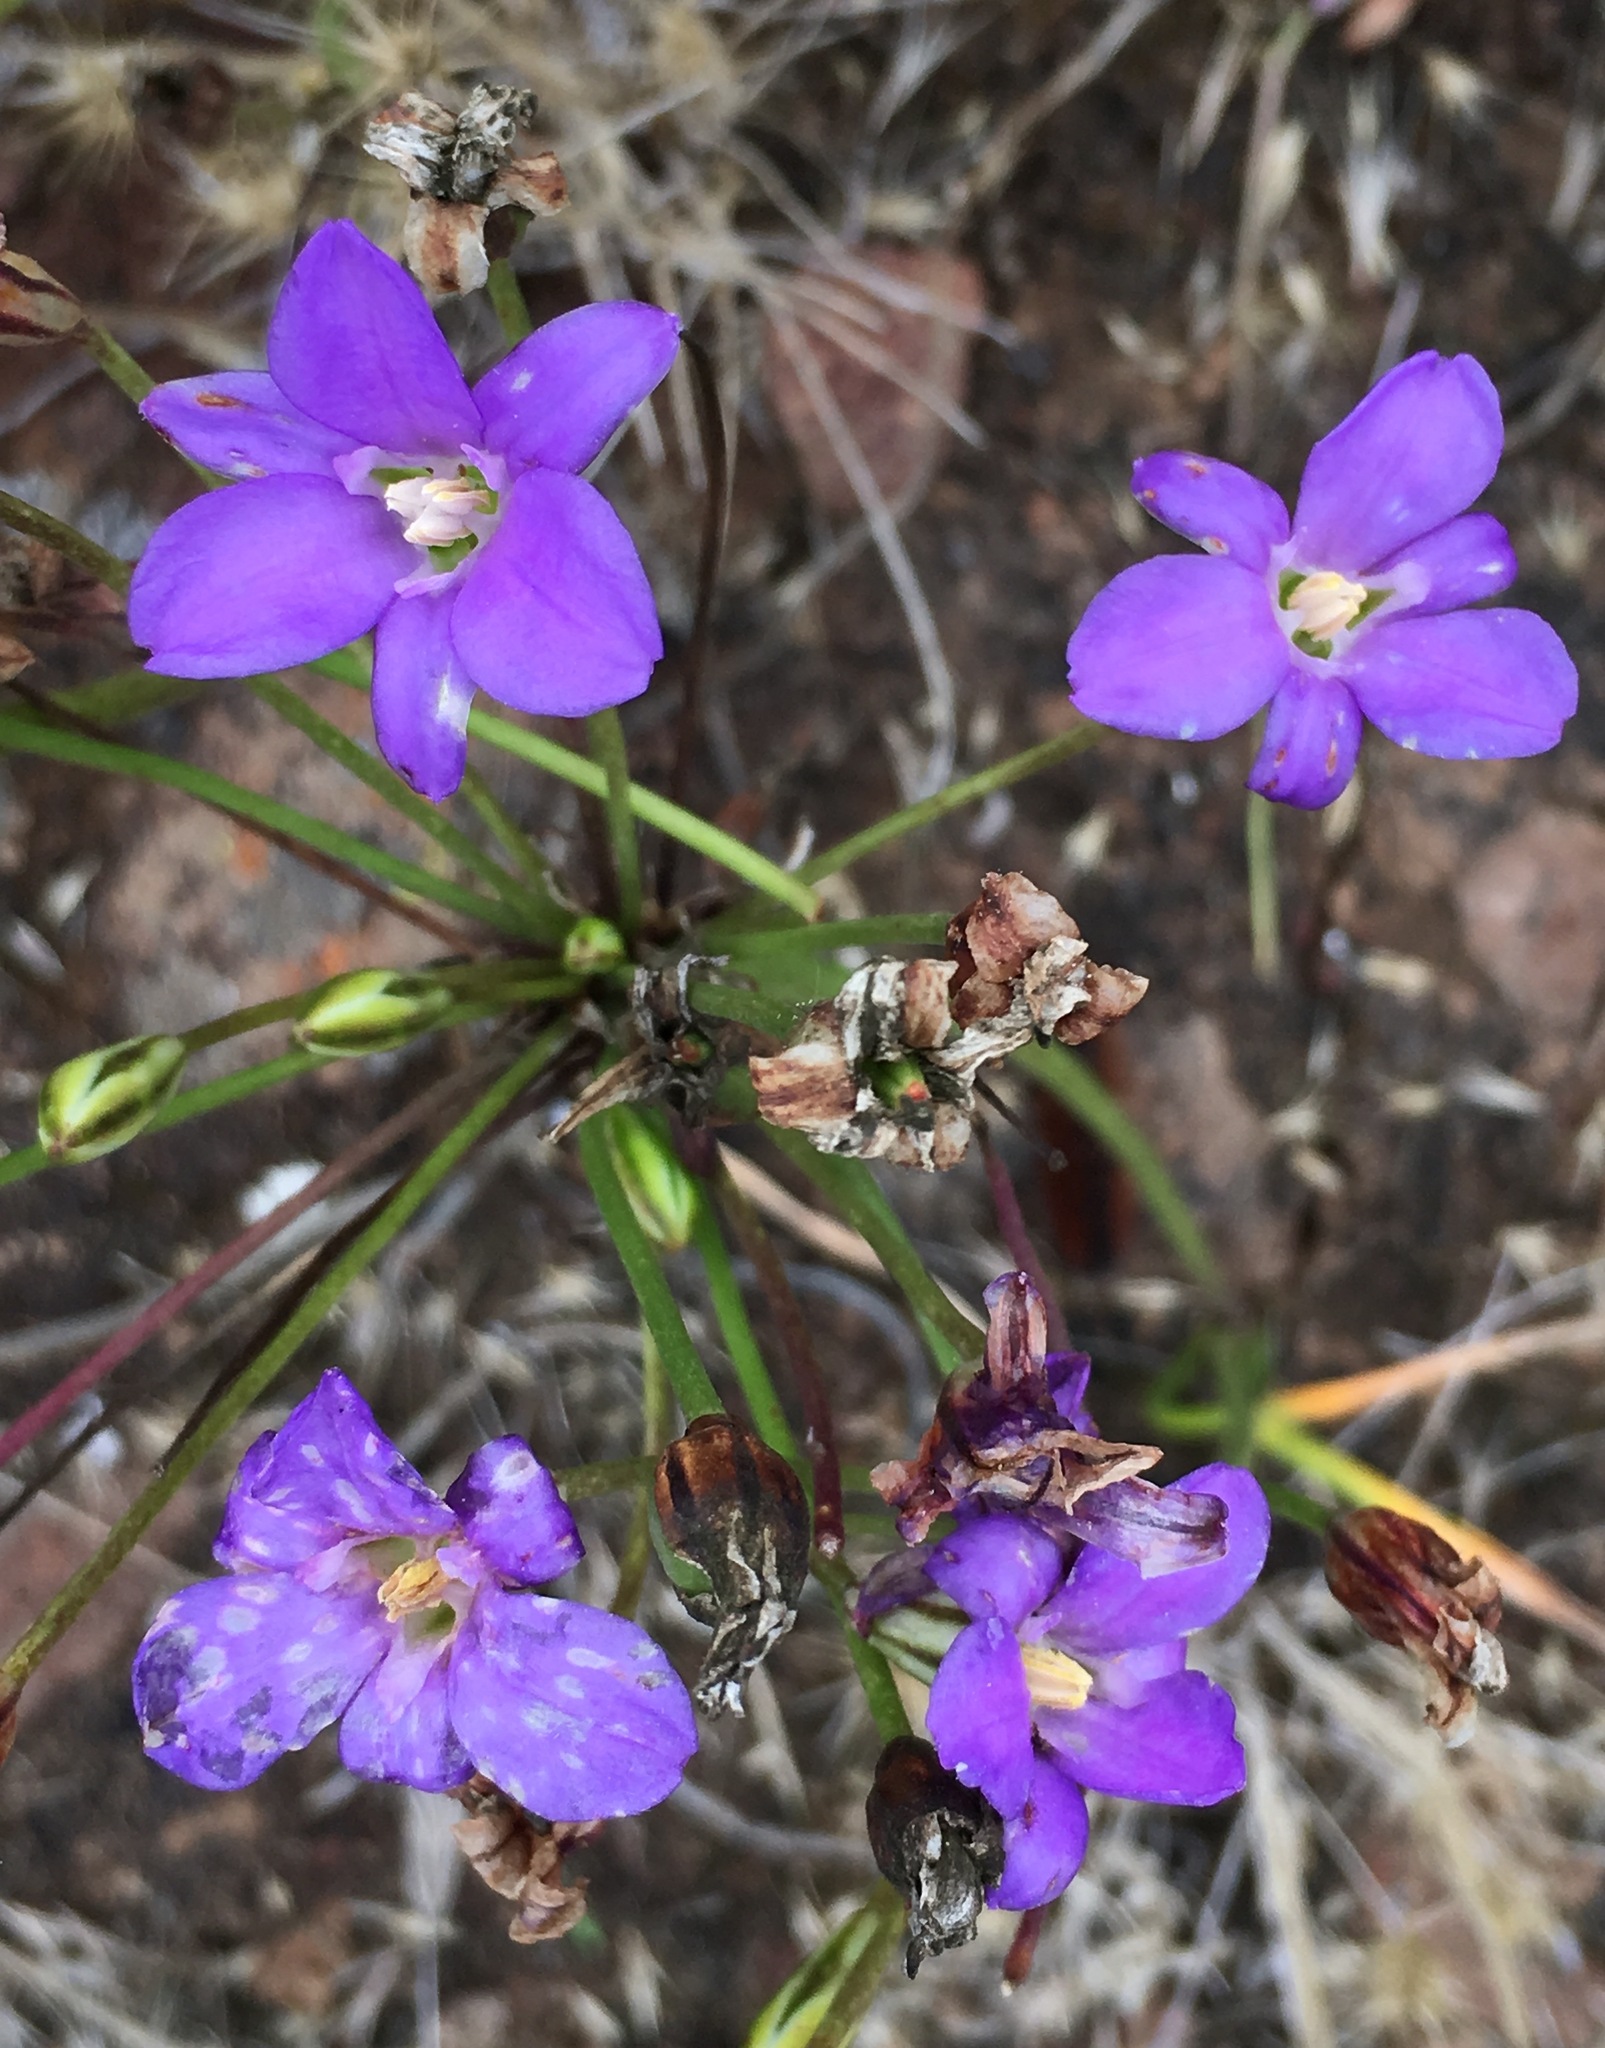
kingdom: Plantae
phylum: Tracheophyta
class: Liliopsida
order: Asparagales
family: Asparagaceae
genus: Brodiaea
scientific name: Brodiaea kinkiensis
